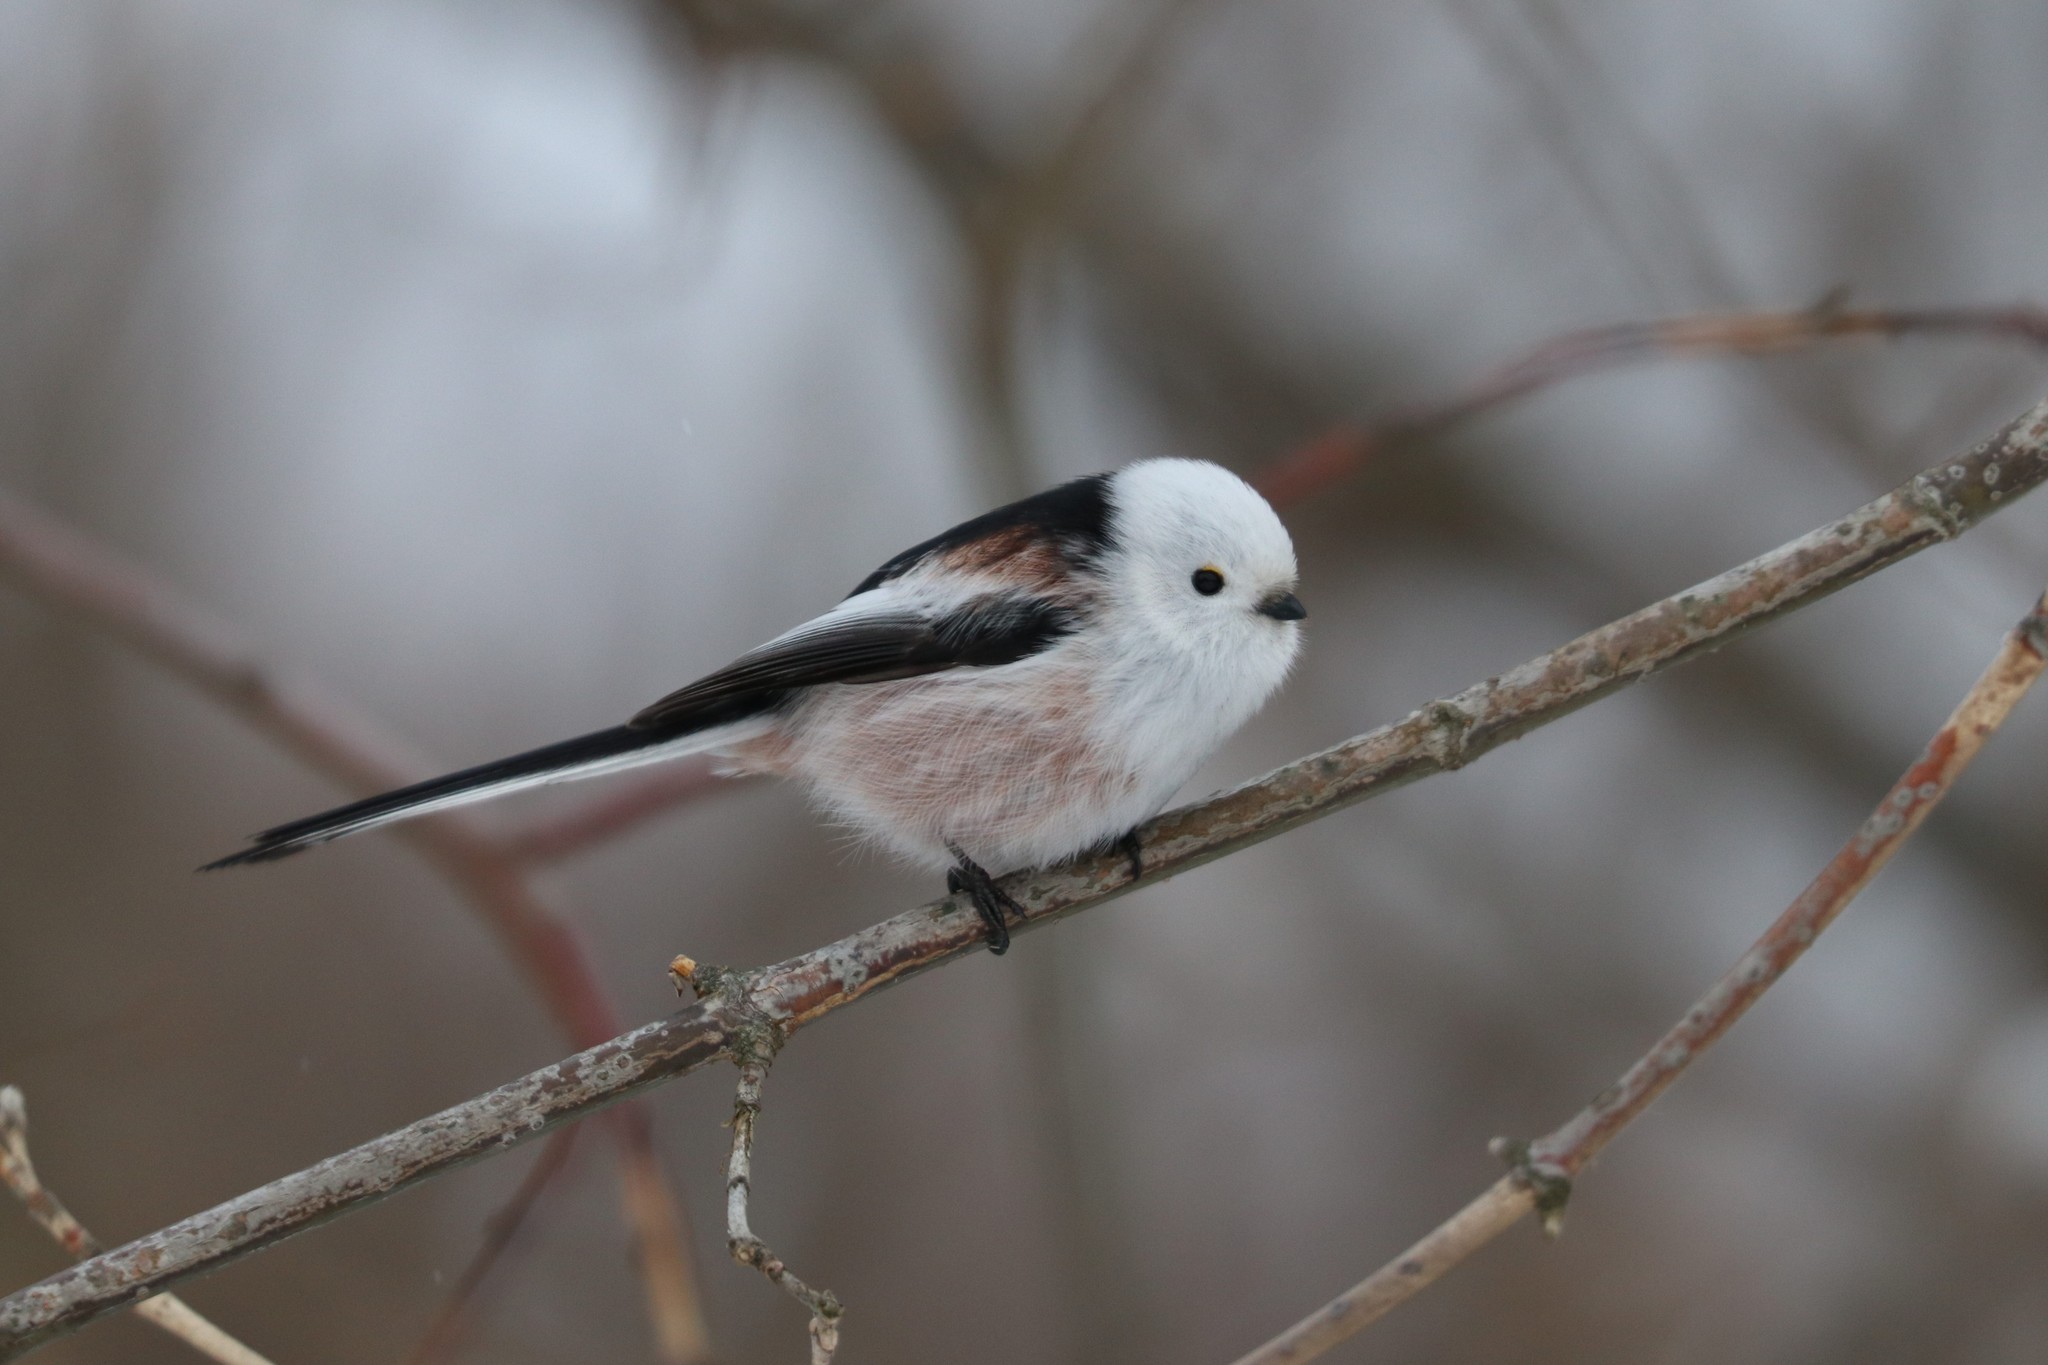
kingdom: Animalia
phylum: Chordata
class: Aves
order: Passeriformes
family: Aegithalidae
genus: Aegithalos
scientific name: Aegithalos caudatus
